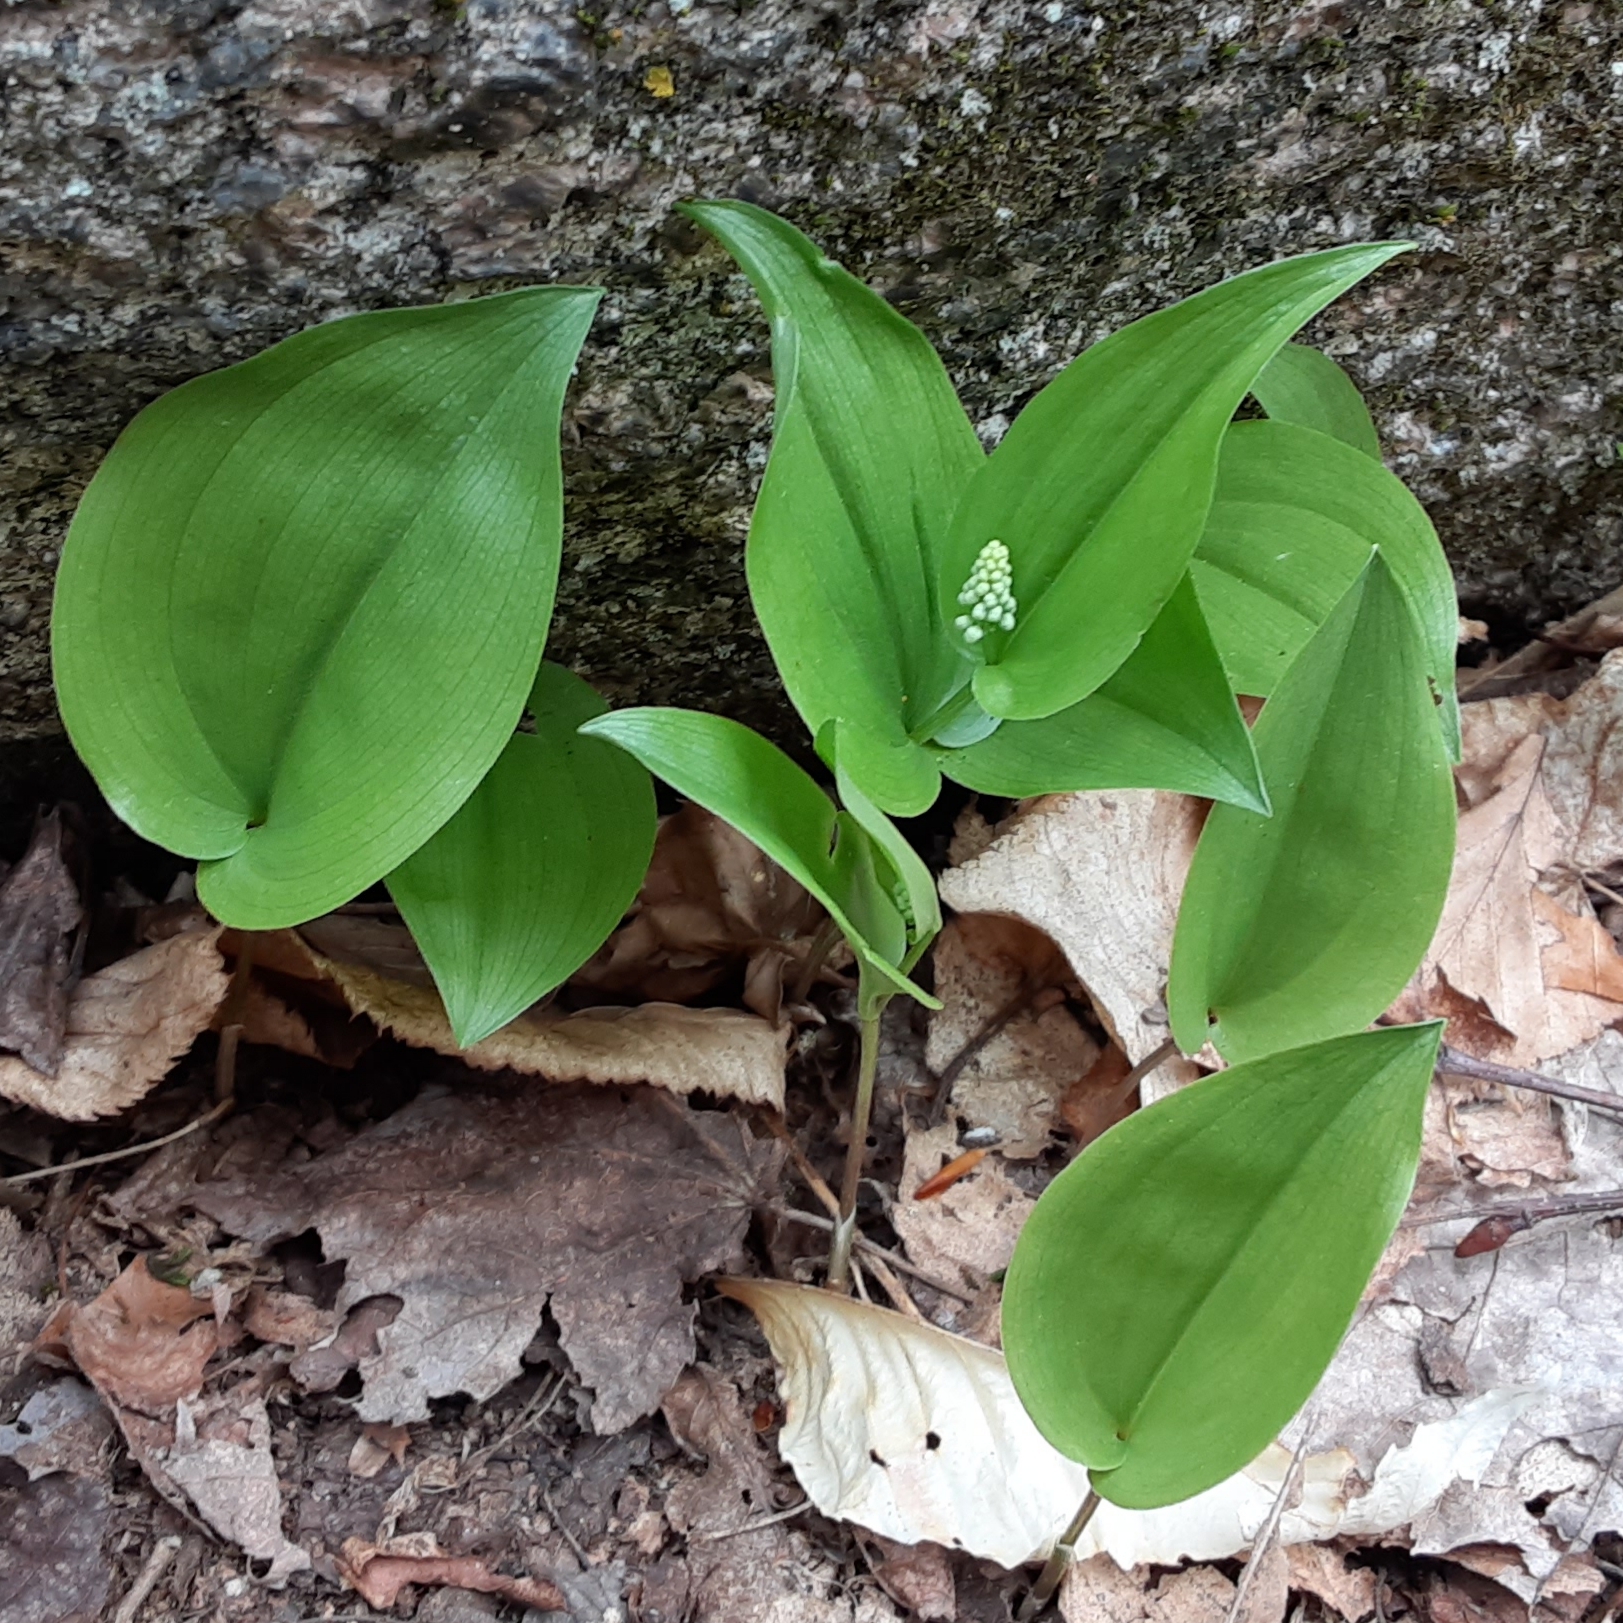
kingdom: Plantae
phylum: Tracheophyta
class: Liliopsida
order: Asparagales
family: Asparagaceae
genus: Maianthemum
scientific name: Maianthemum canadense
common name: False lily-of-the-valley
